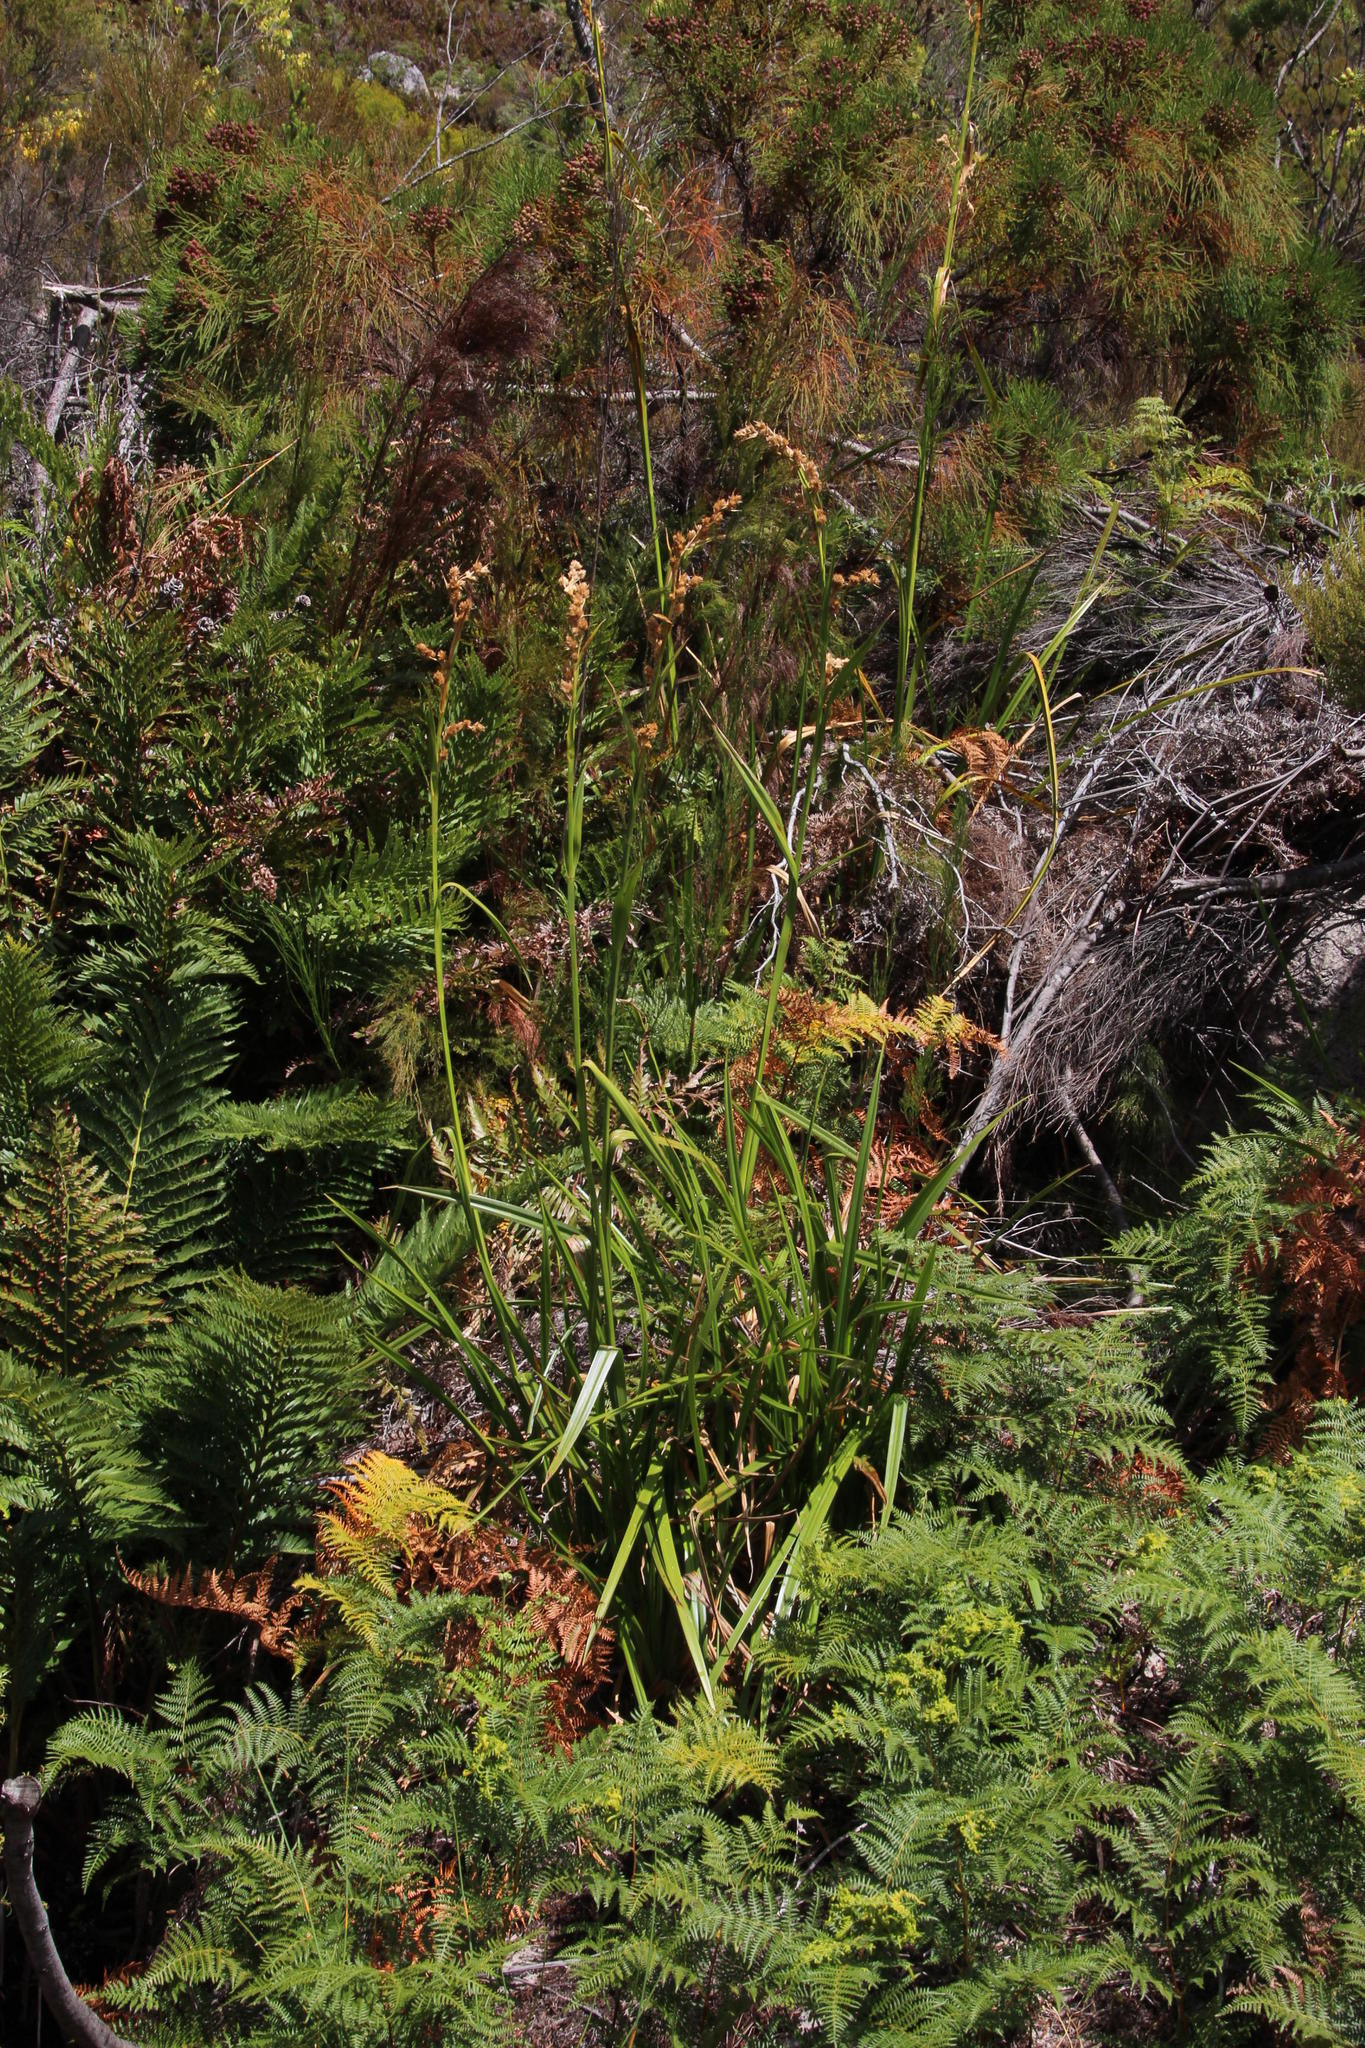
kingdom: Plantae
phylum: Tracheophyta
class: Liliopsida
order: Poales
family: Cyperaceae
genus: Carpha
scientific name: Carpha glomerata
